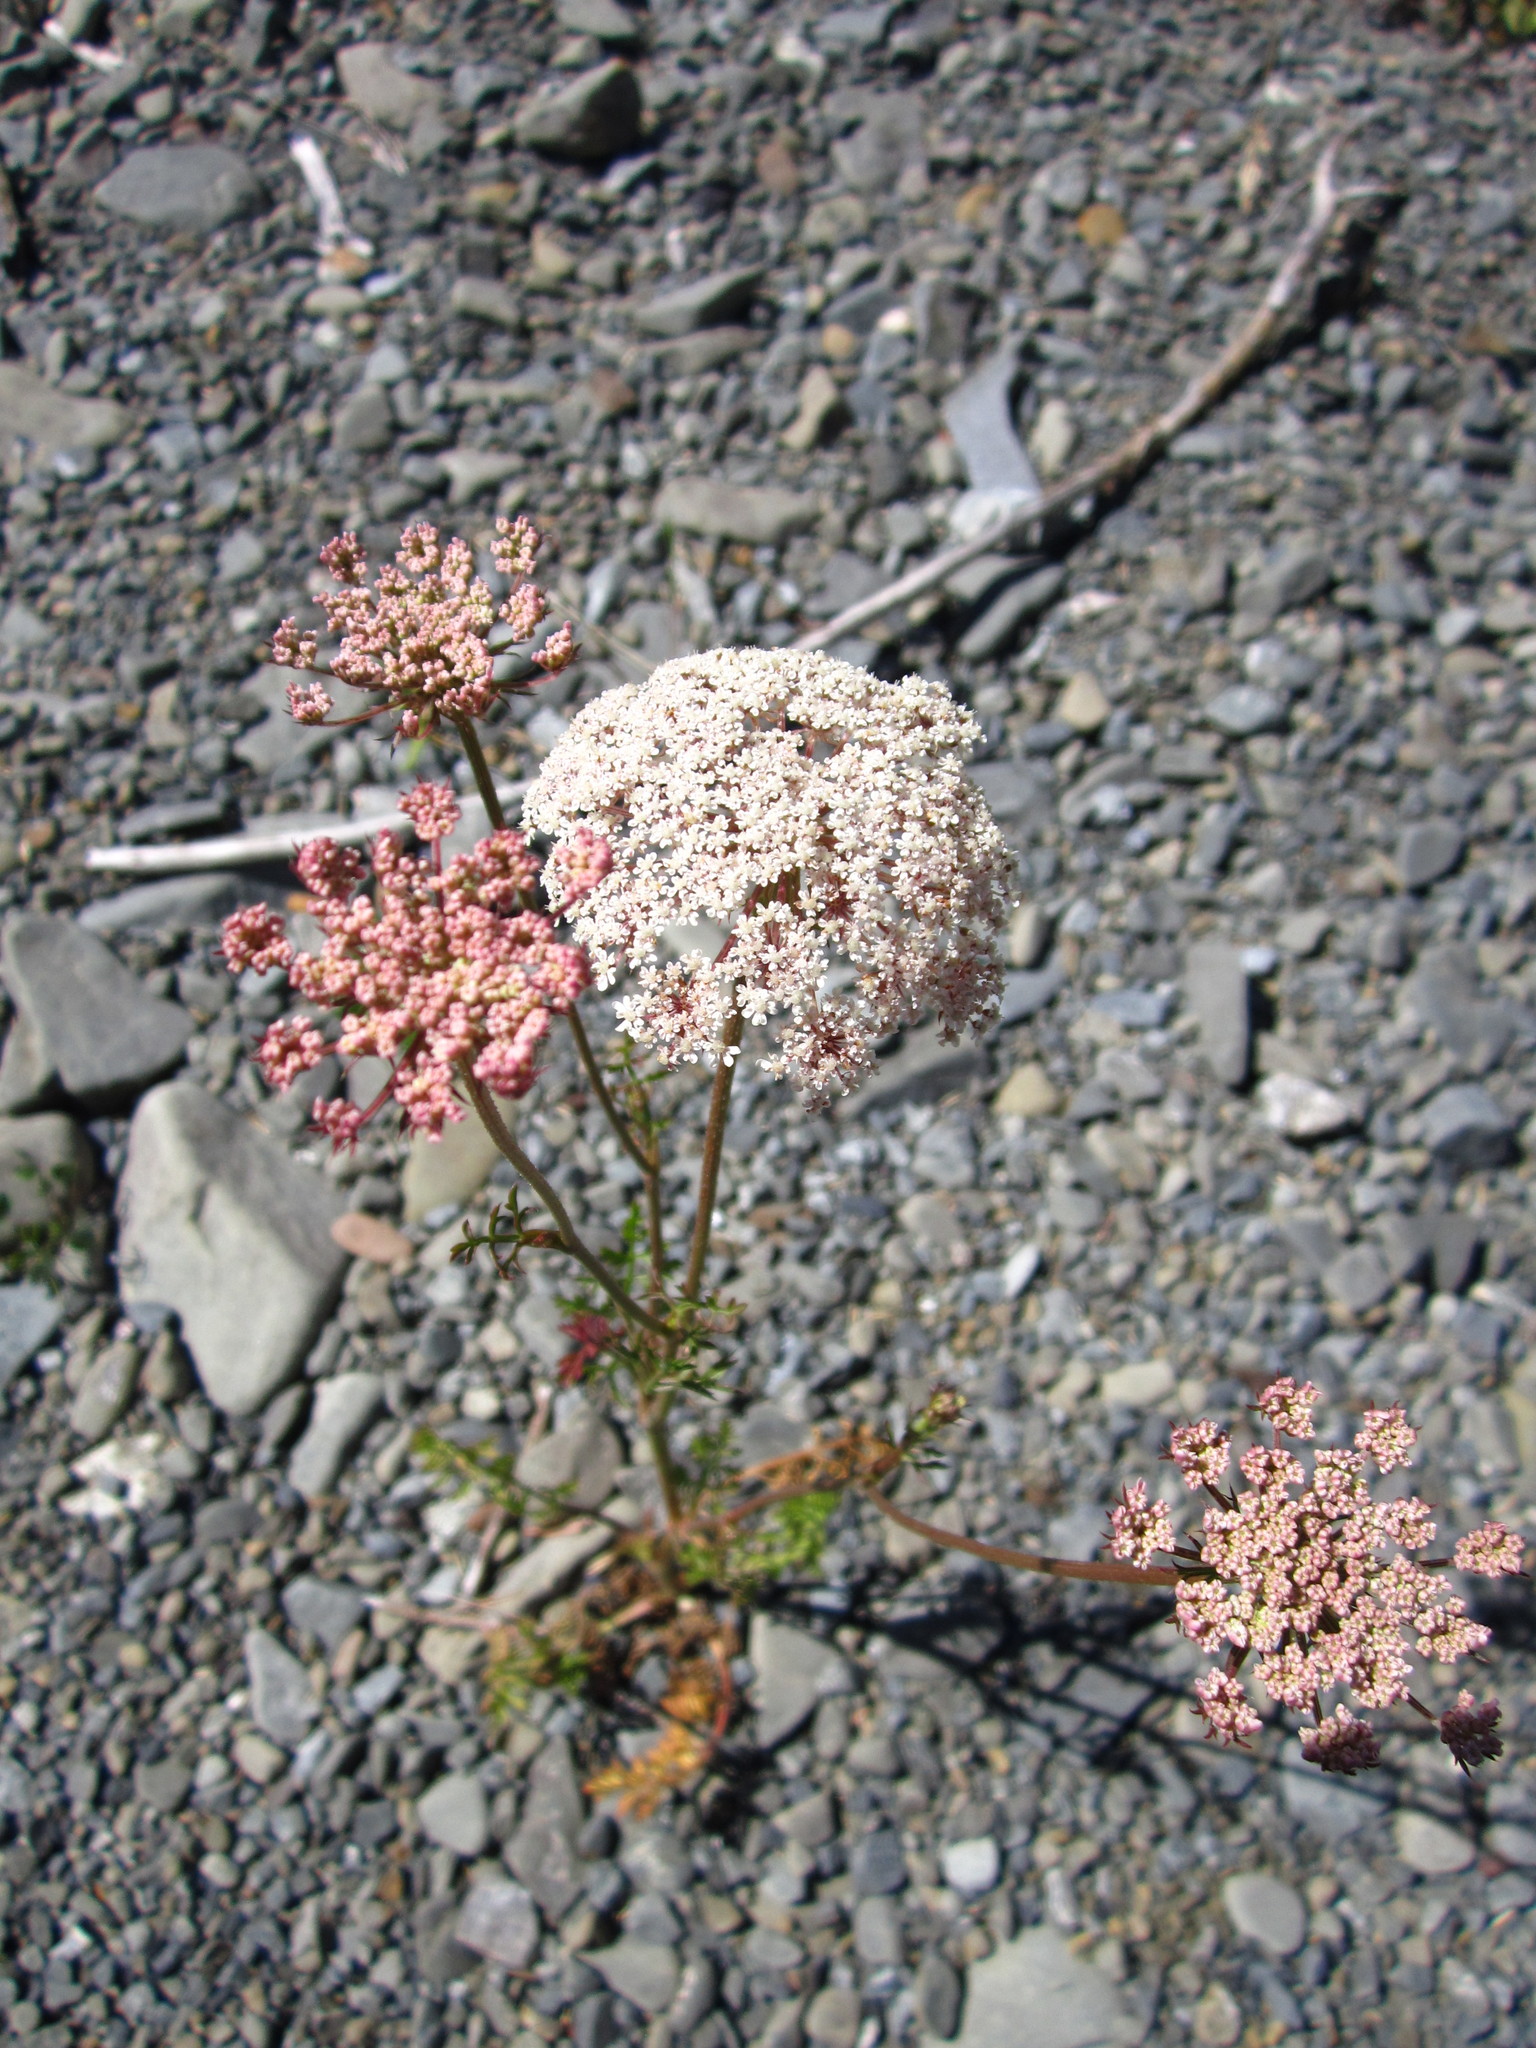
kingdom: Plantae
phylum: Tracheophyta
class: Magnoliopsida
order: Apiales
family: Apiaceae
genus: Daucus
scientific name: Daucus carota
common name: Wild carrot
